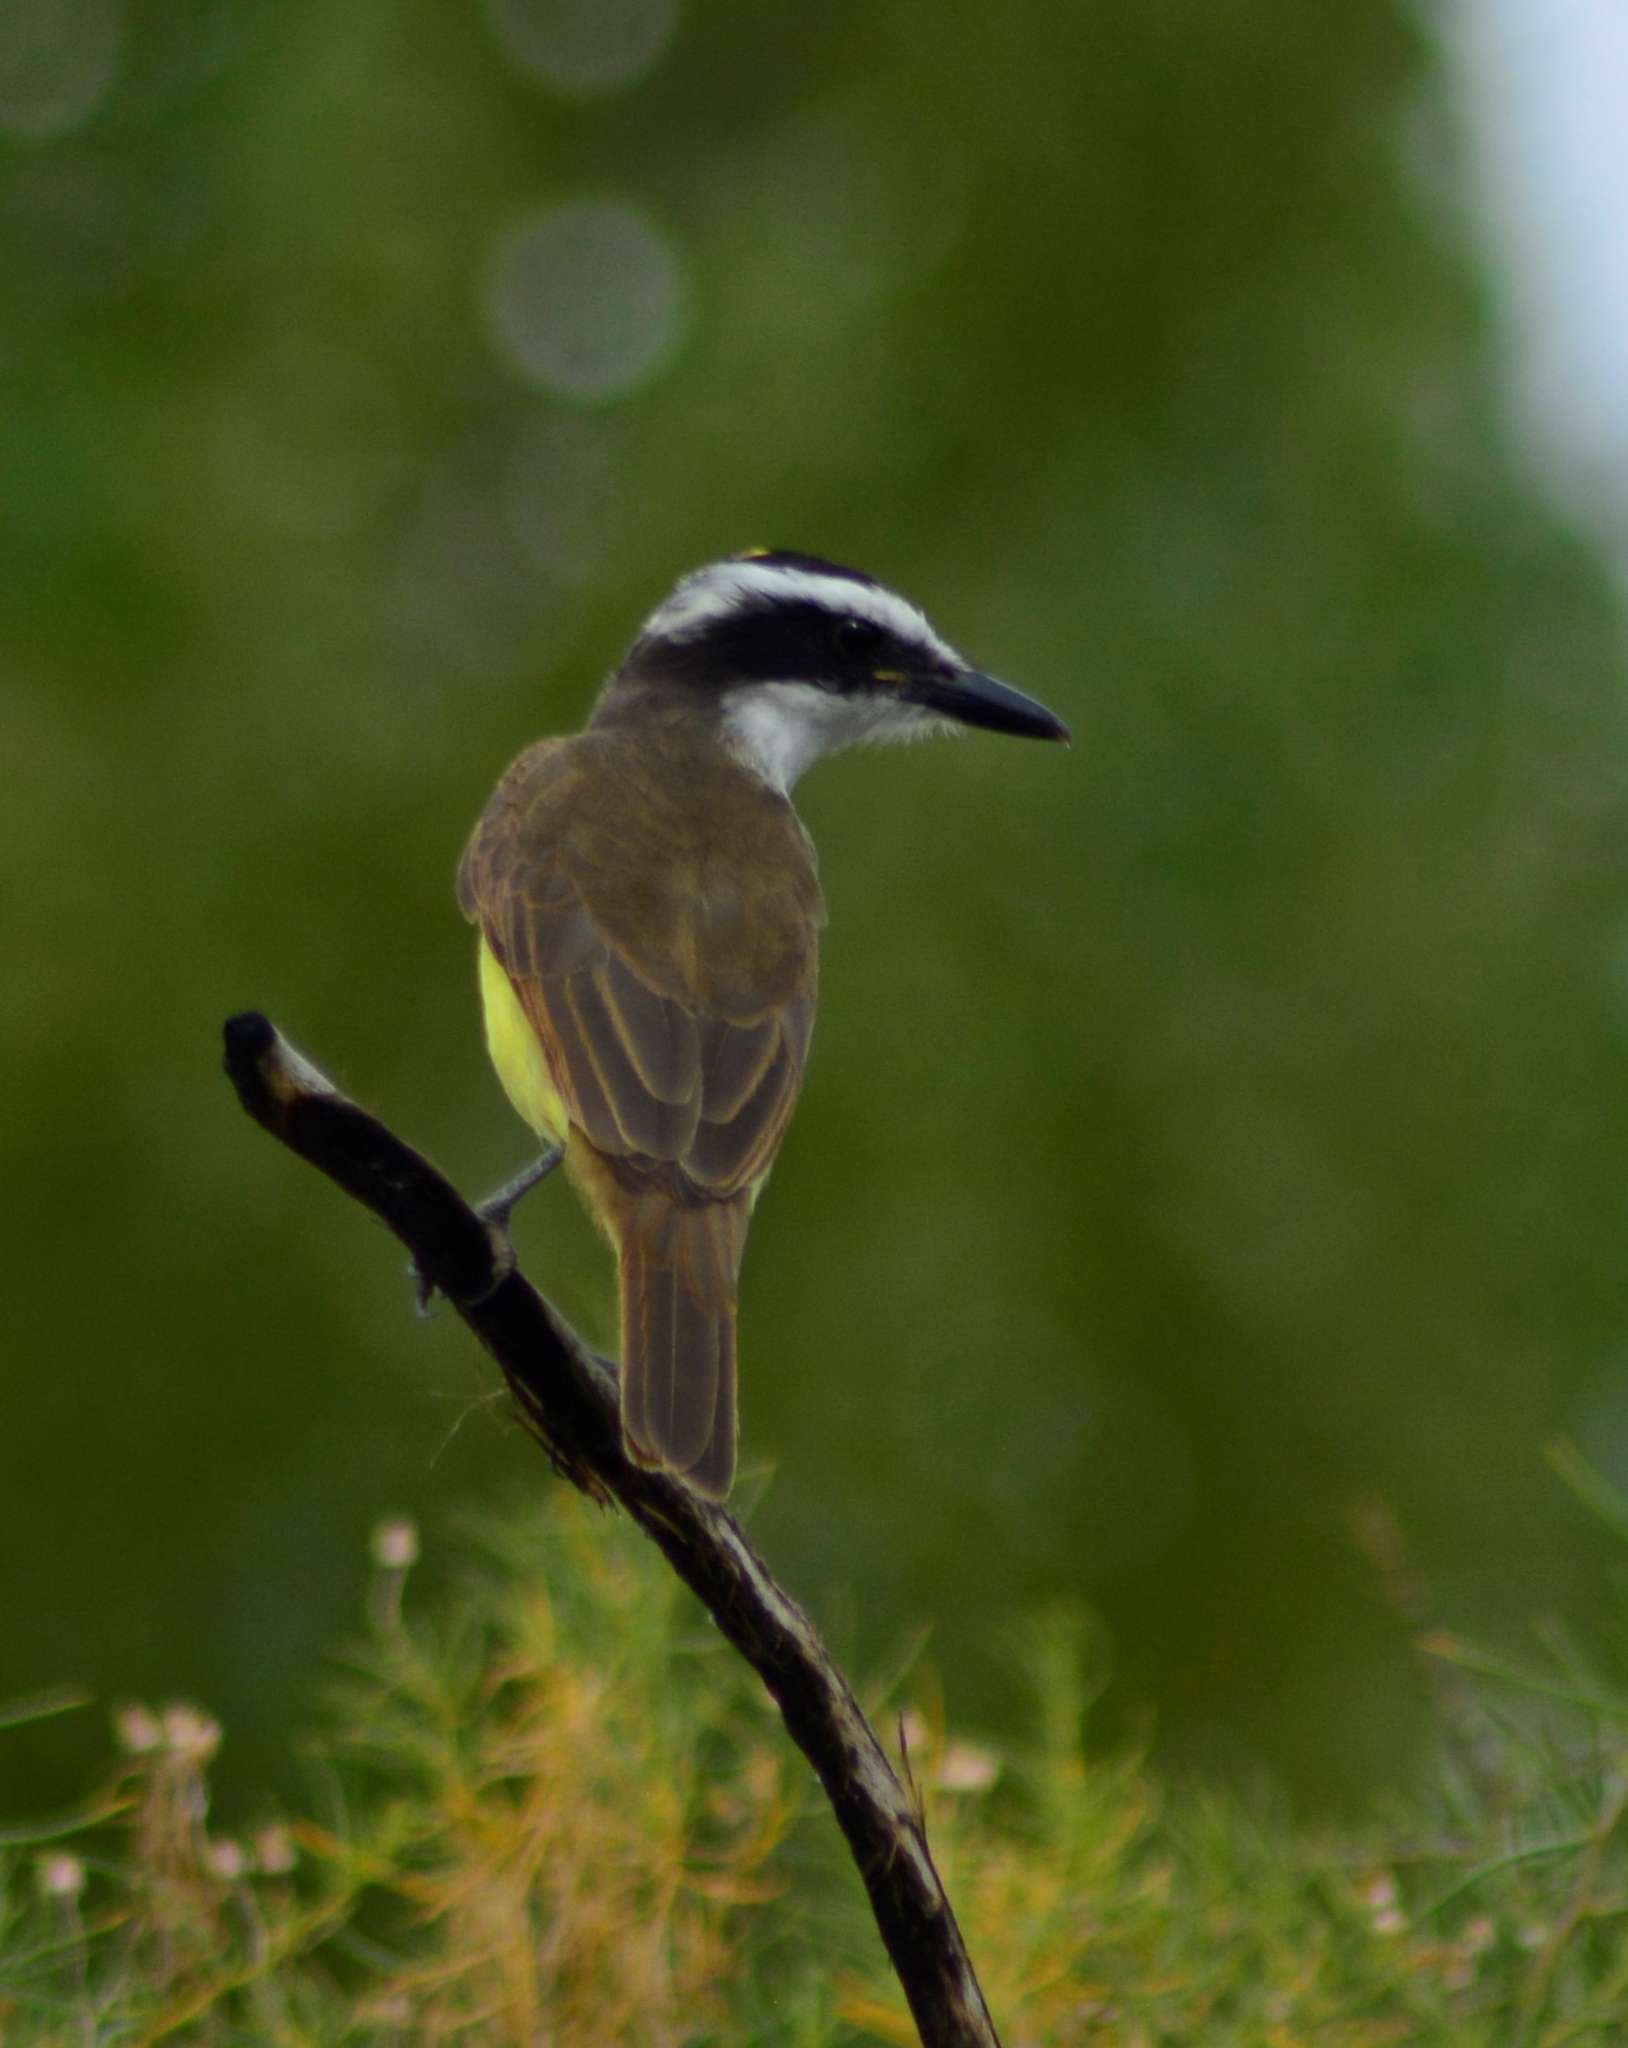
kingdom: Animalia
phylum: Chordata
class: Aves
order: Passeriformes
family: Tyrannidae
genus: Pitangus
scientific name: Pitangus sulphuratus
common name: Great kiskadee
